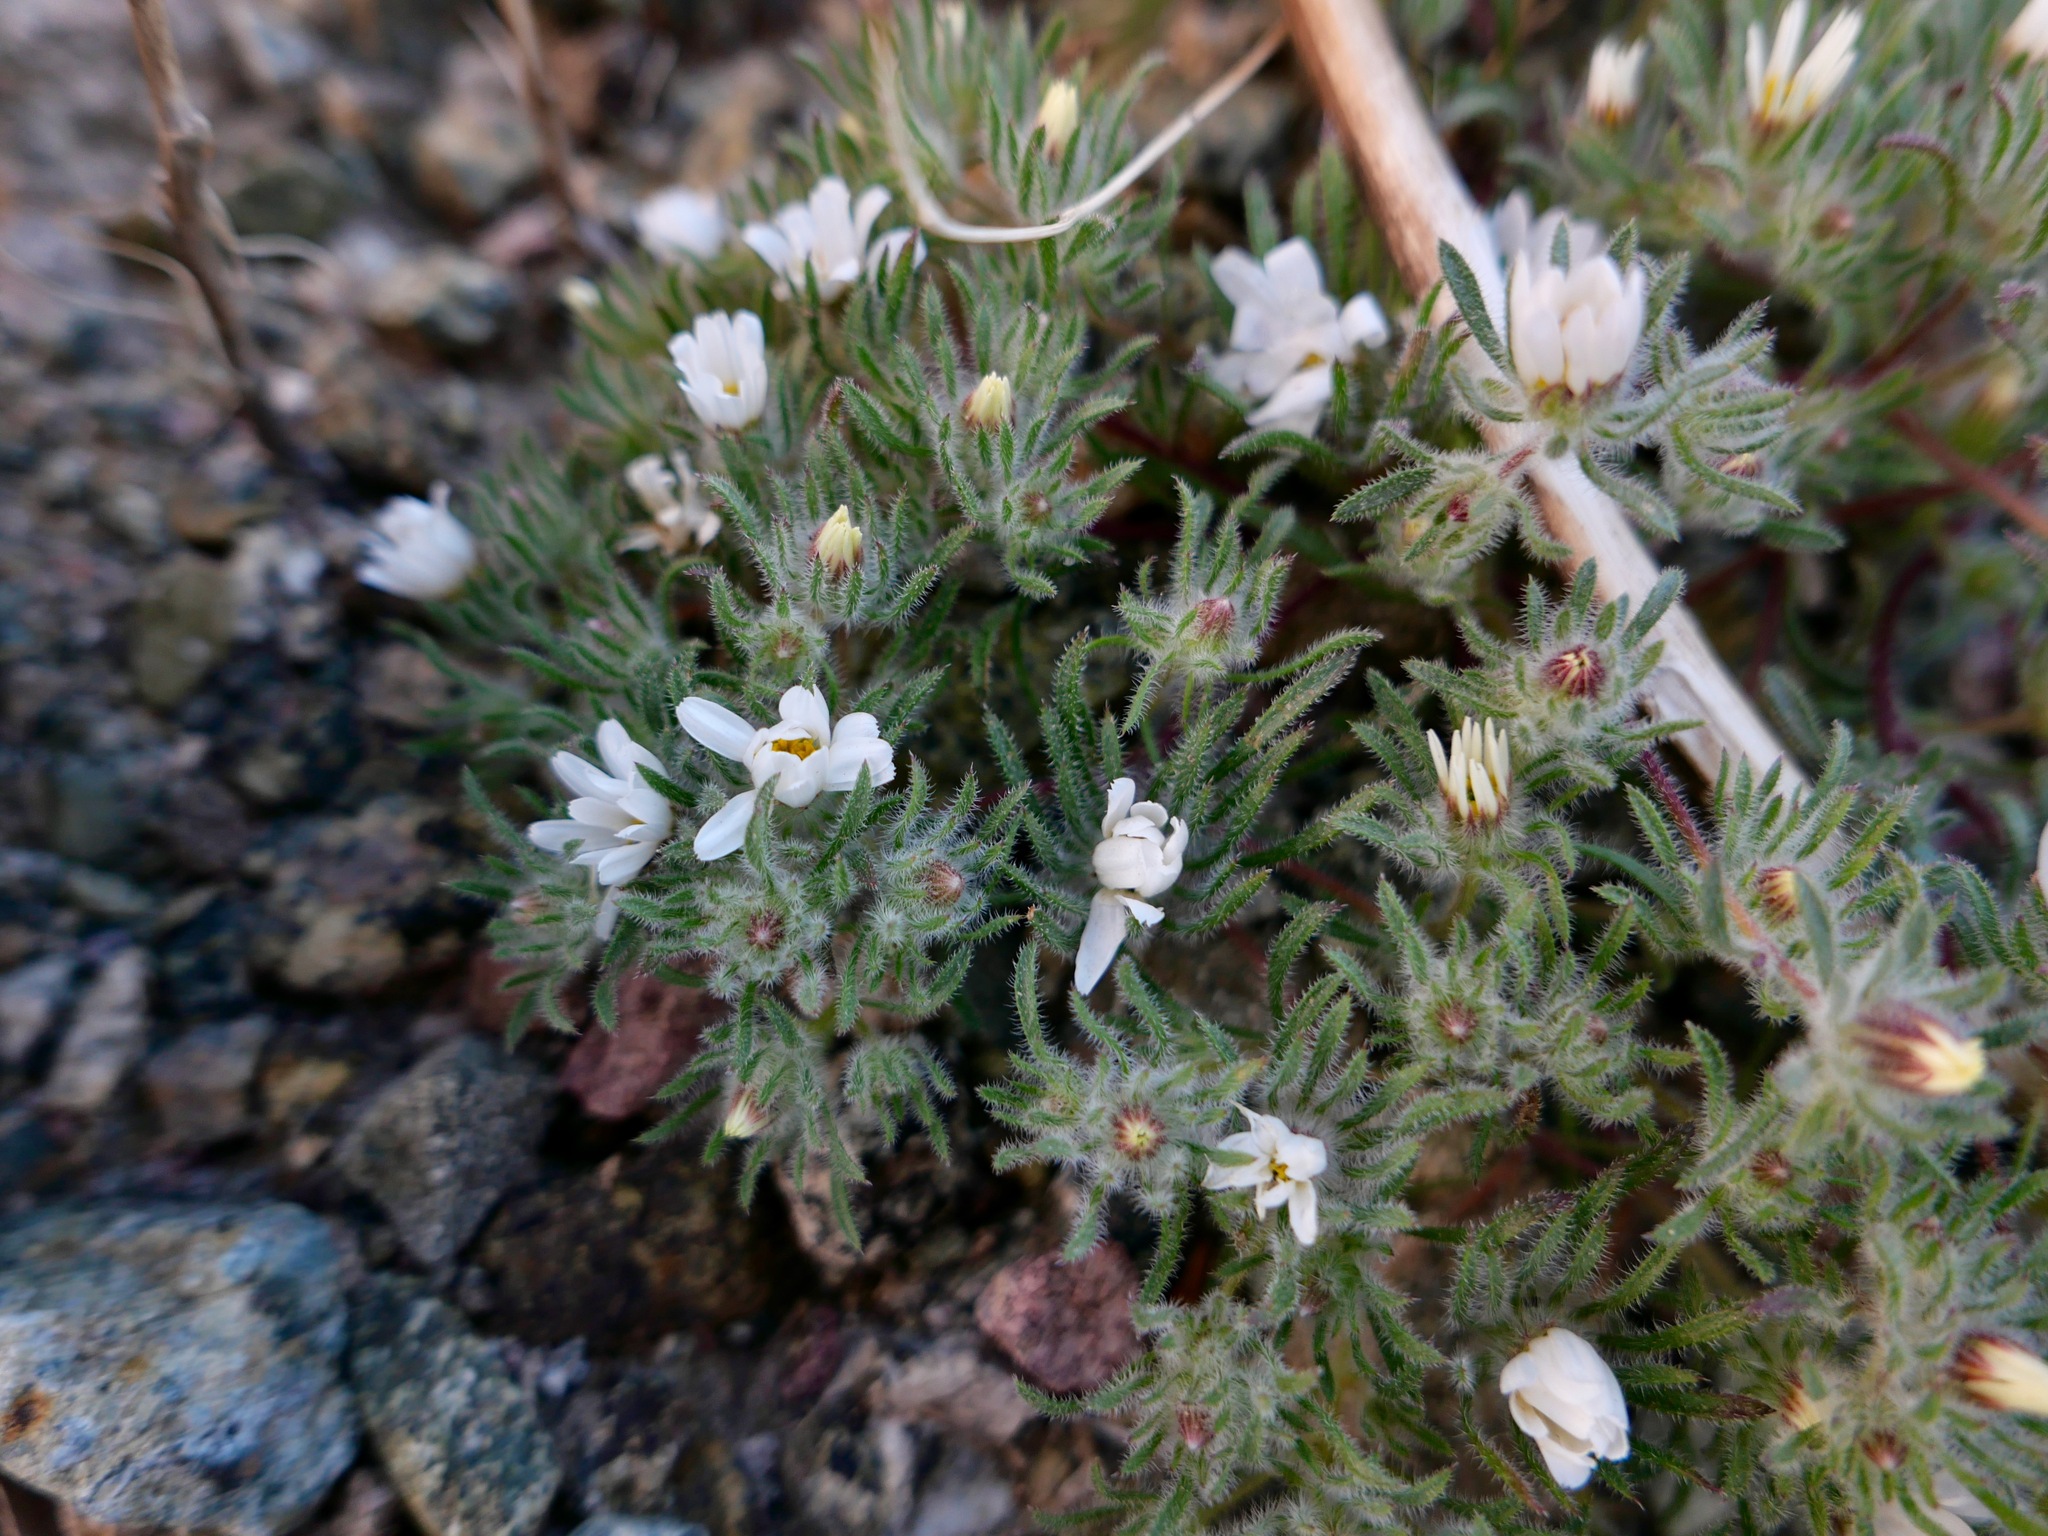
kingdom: Plantae
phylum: Tracheophyta
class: Magnoliopsida
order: Asterales
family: Asteraceae
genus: Monoptilon
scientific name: Monoptilon bellioides
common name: Bristly desertstar
